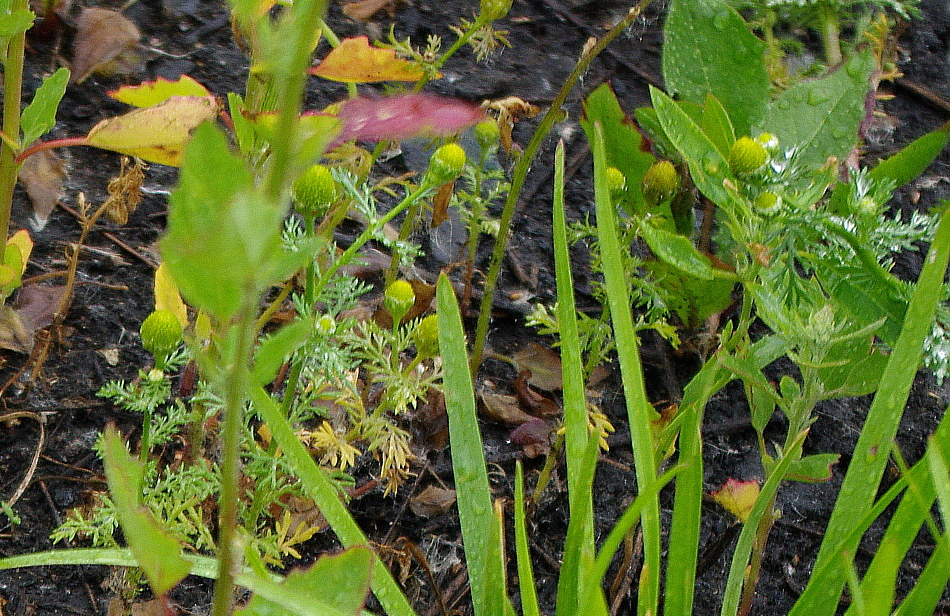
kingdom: Plantae
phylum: Tracheophyta
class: Magnoliopsida
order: Asterales
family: Asteraceae
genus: Matricaria
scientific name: Matricaria discoidea
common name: Disc mayweed
